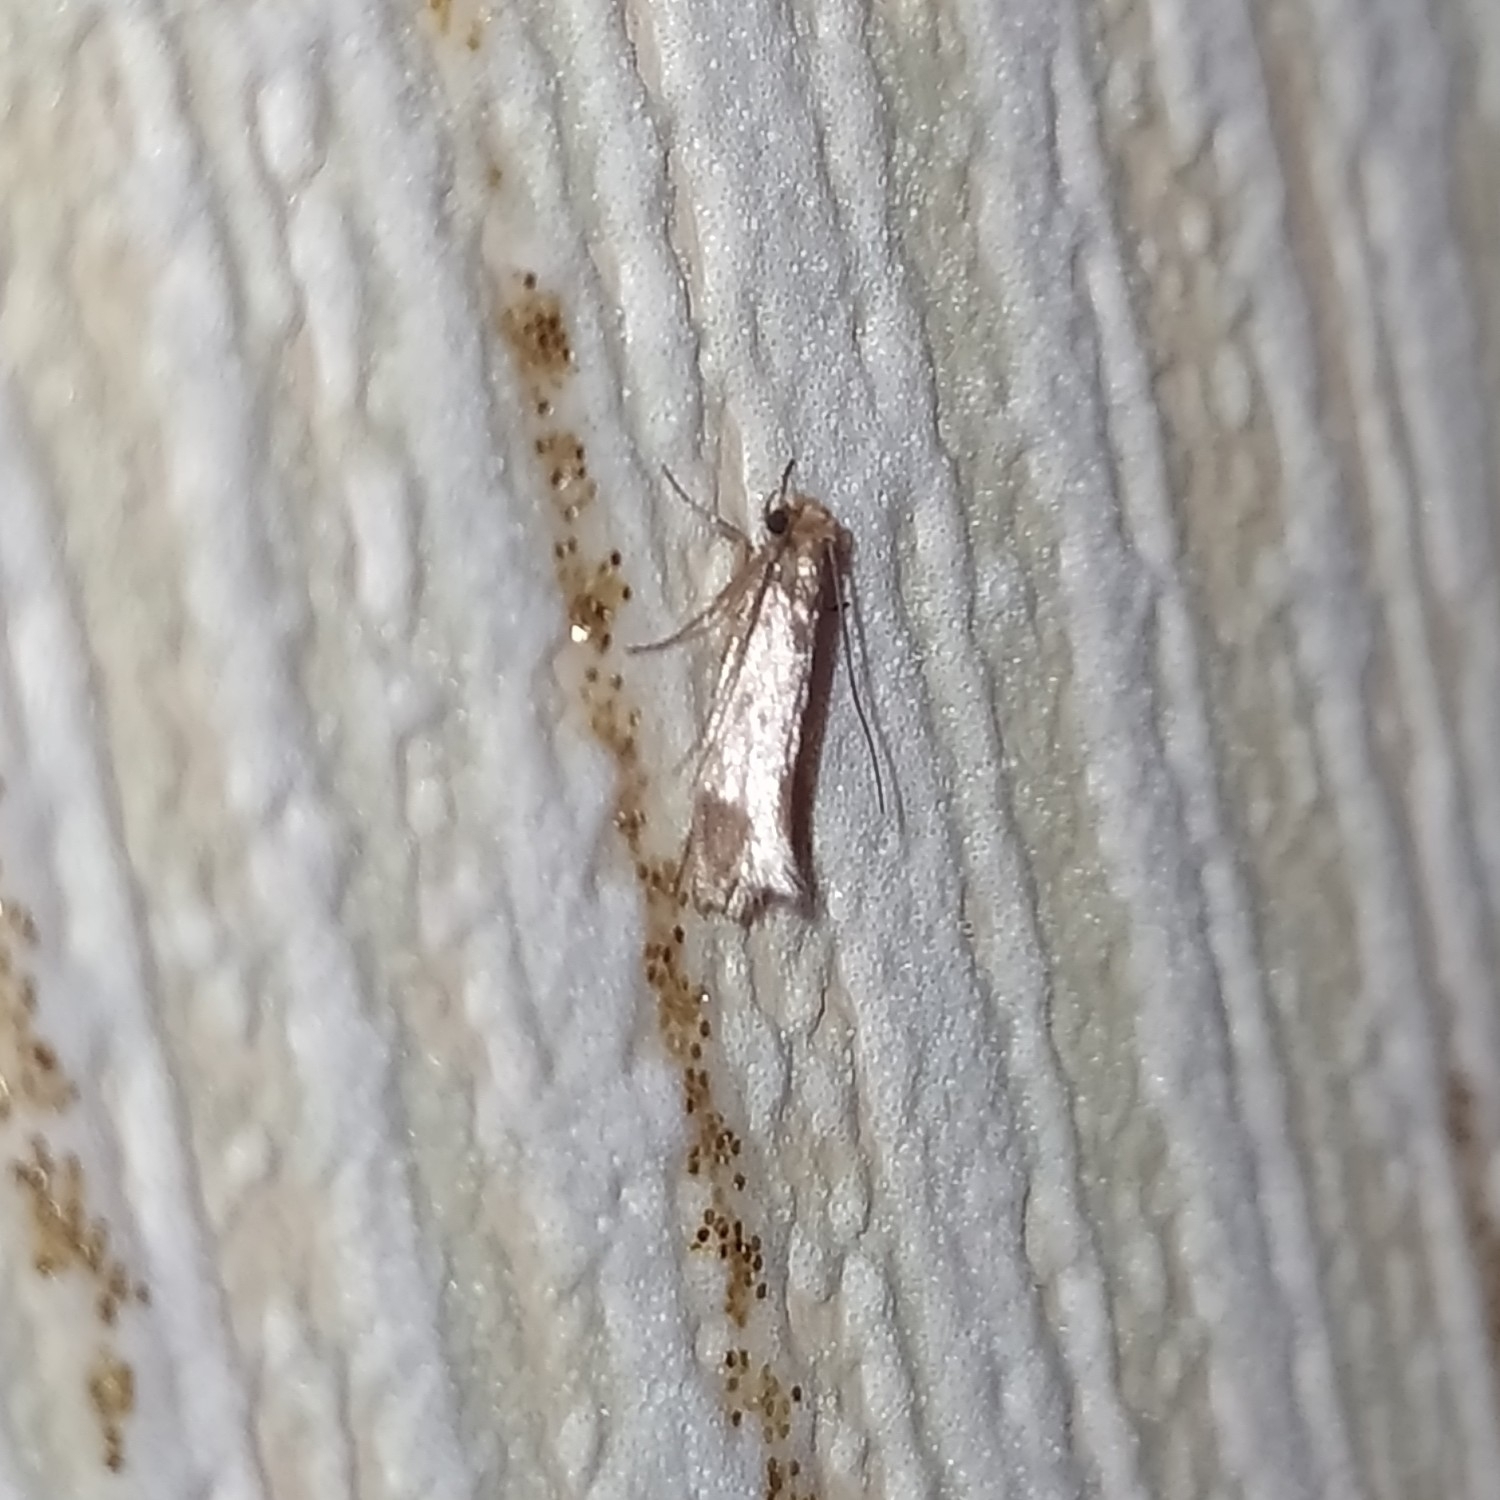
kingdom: Animalia
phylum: Arthropoda
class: Insecta
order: Lepidoptera
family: Tineidae
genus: Tineola
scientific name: Tineola bisselliella
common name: Webbing clothes moth
